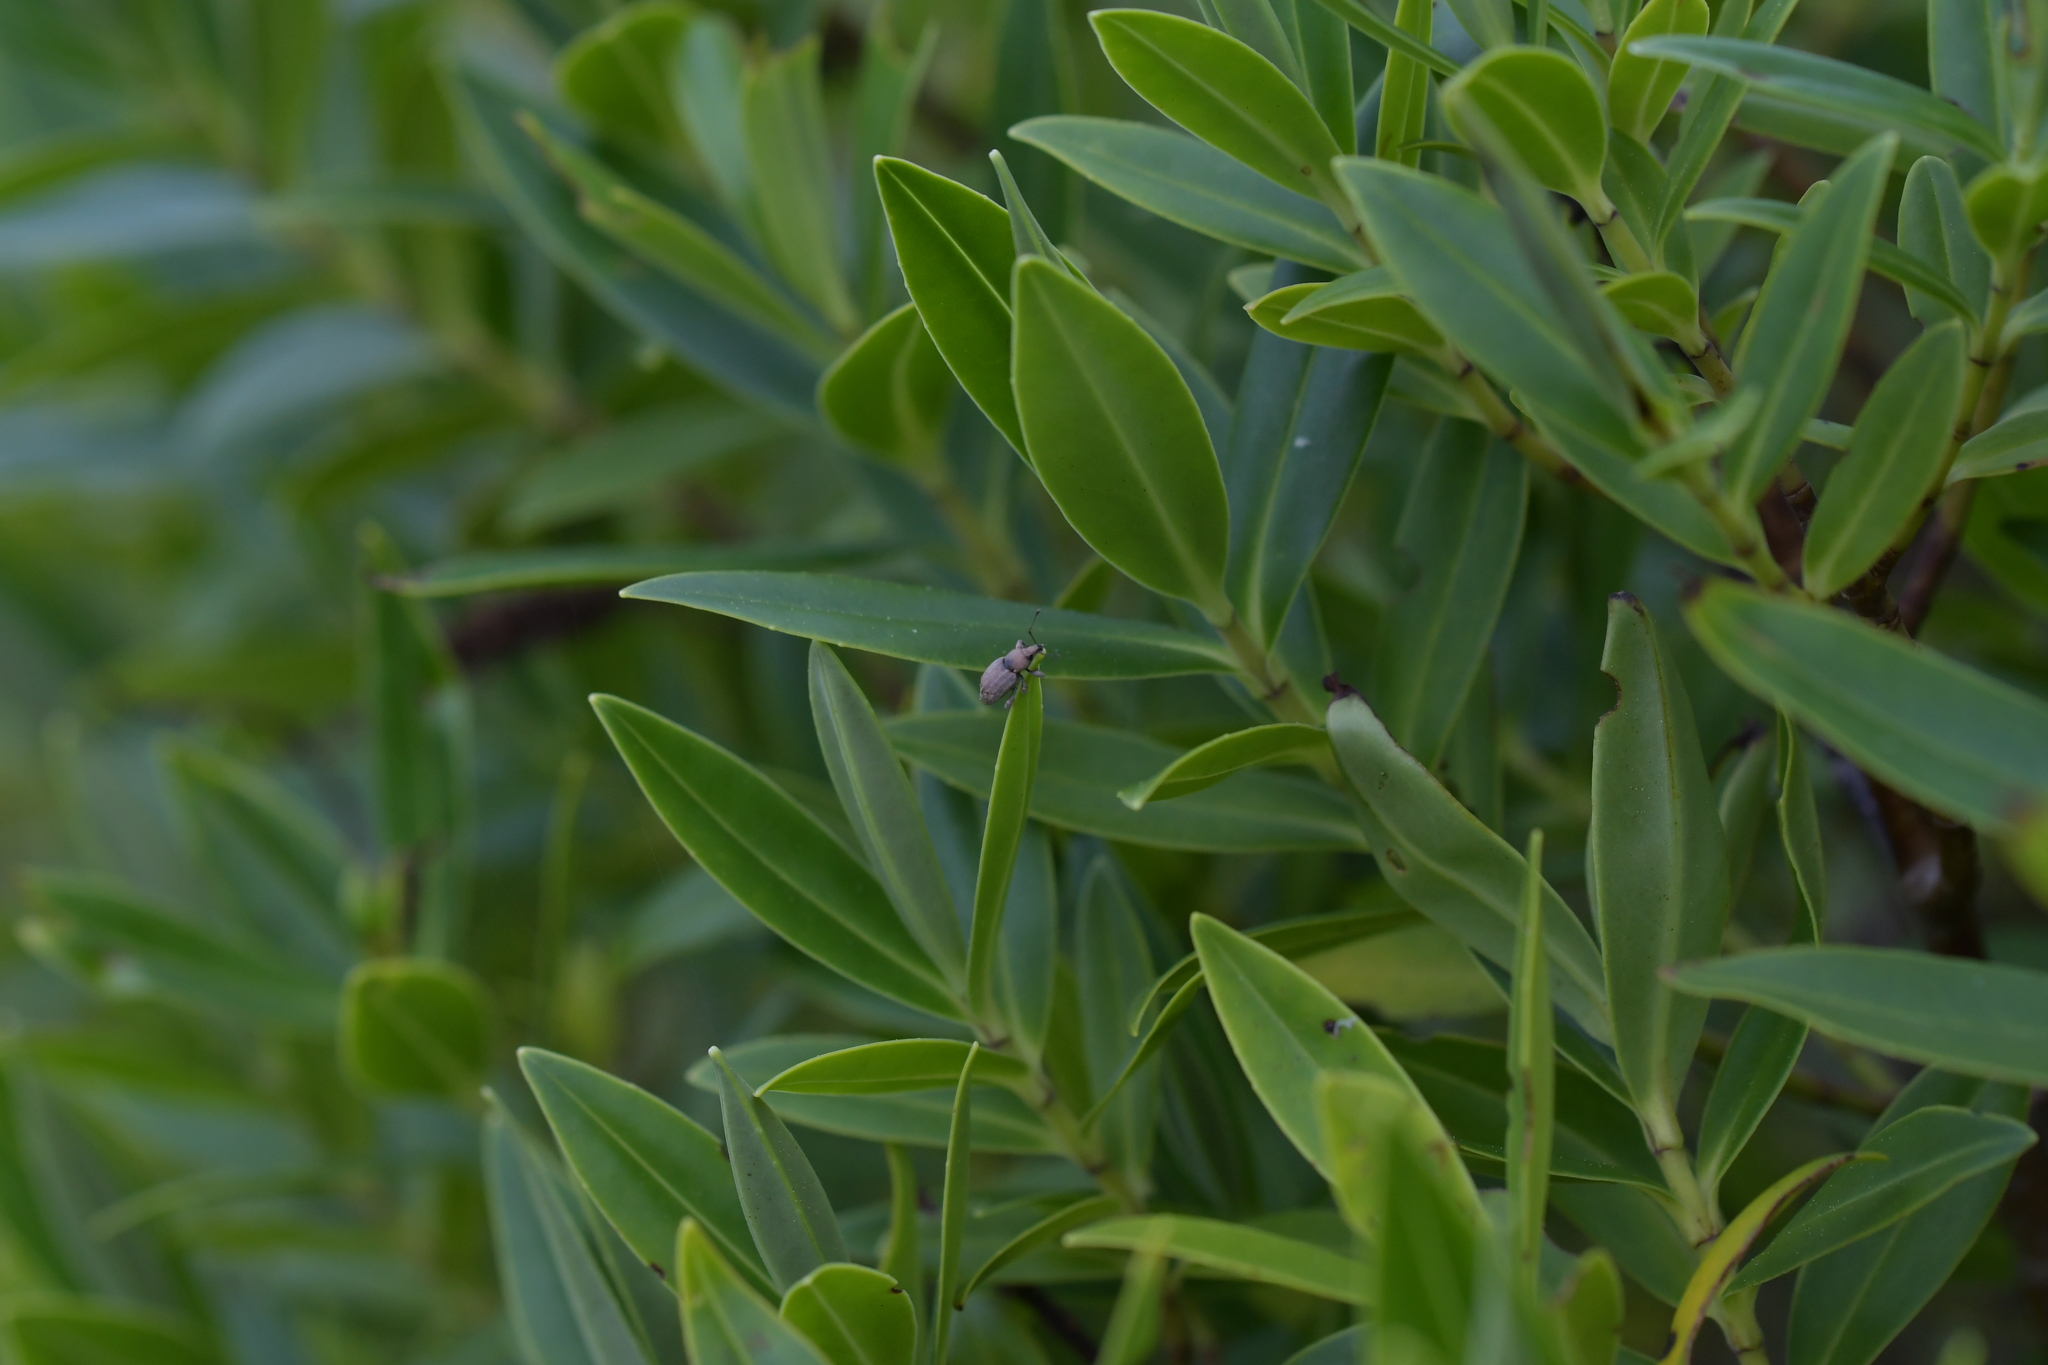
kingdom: Animalia
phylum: Arthropoda
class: Insecta
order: Coleoptera
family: Curculionidae
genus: Chalepistes
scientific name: Chalepistes compressus
